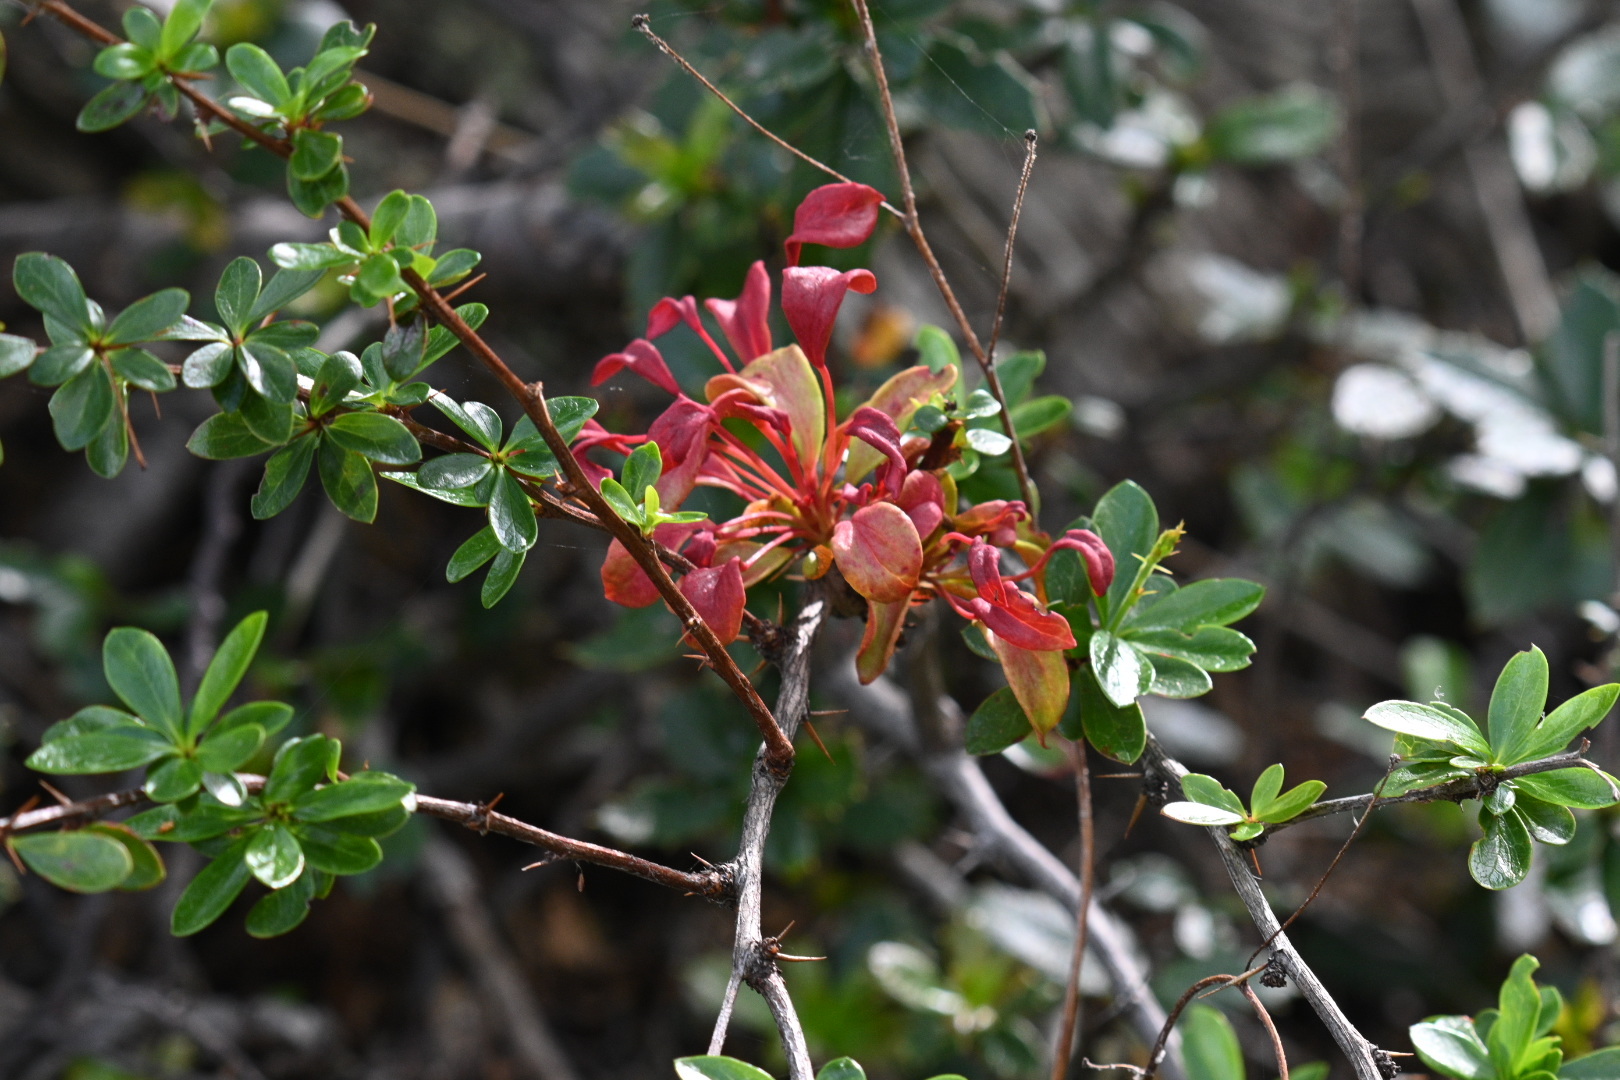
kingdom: Fungi
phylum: Basidiomycota
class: Pucciniomycetes
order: Pucciniales
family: Pucciniaceae
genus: Puccinia
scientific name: Puccinia magellanica
